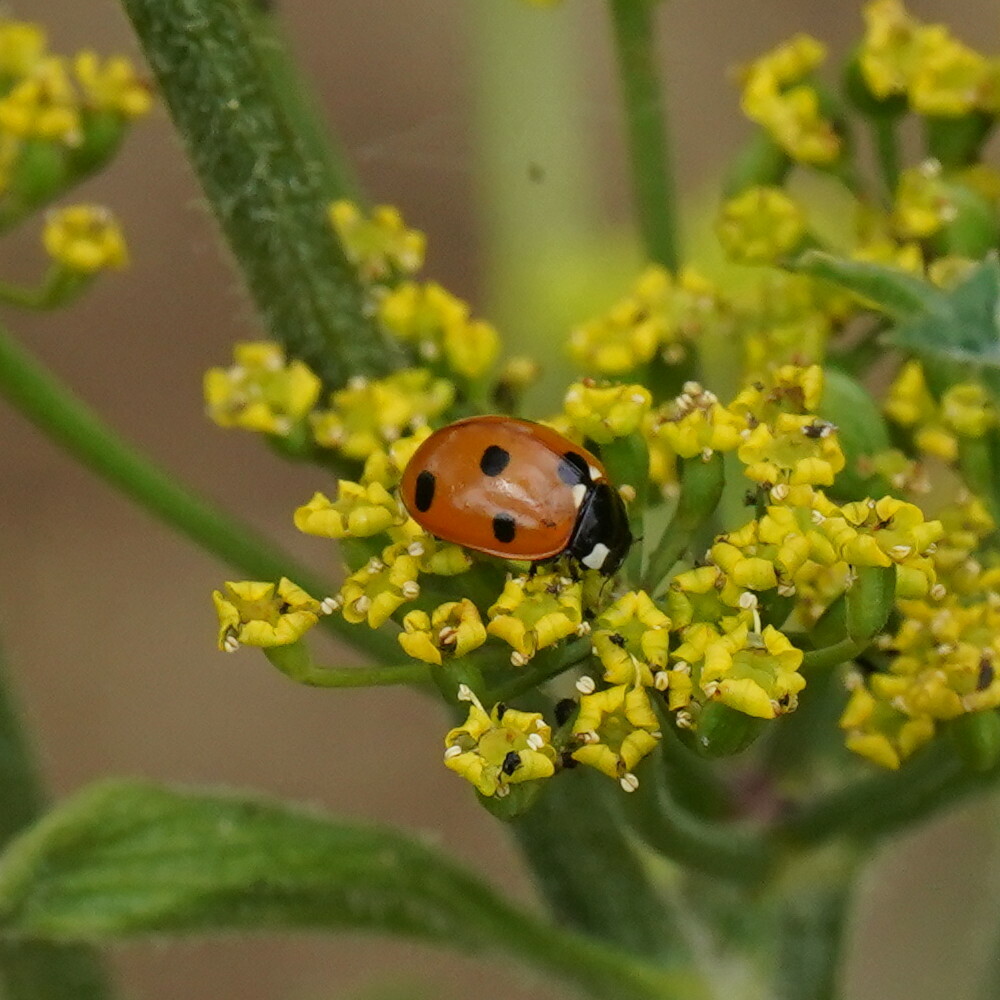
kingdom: Animalia
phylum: Arthropoda
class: Insecta
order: Coleoptera
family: Coccinellidae
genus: Coccinella
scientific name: Coccinella septempunctata
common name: Sevenspotted lady beetle
